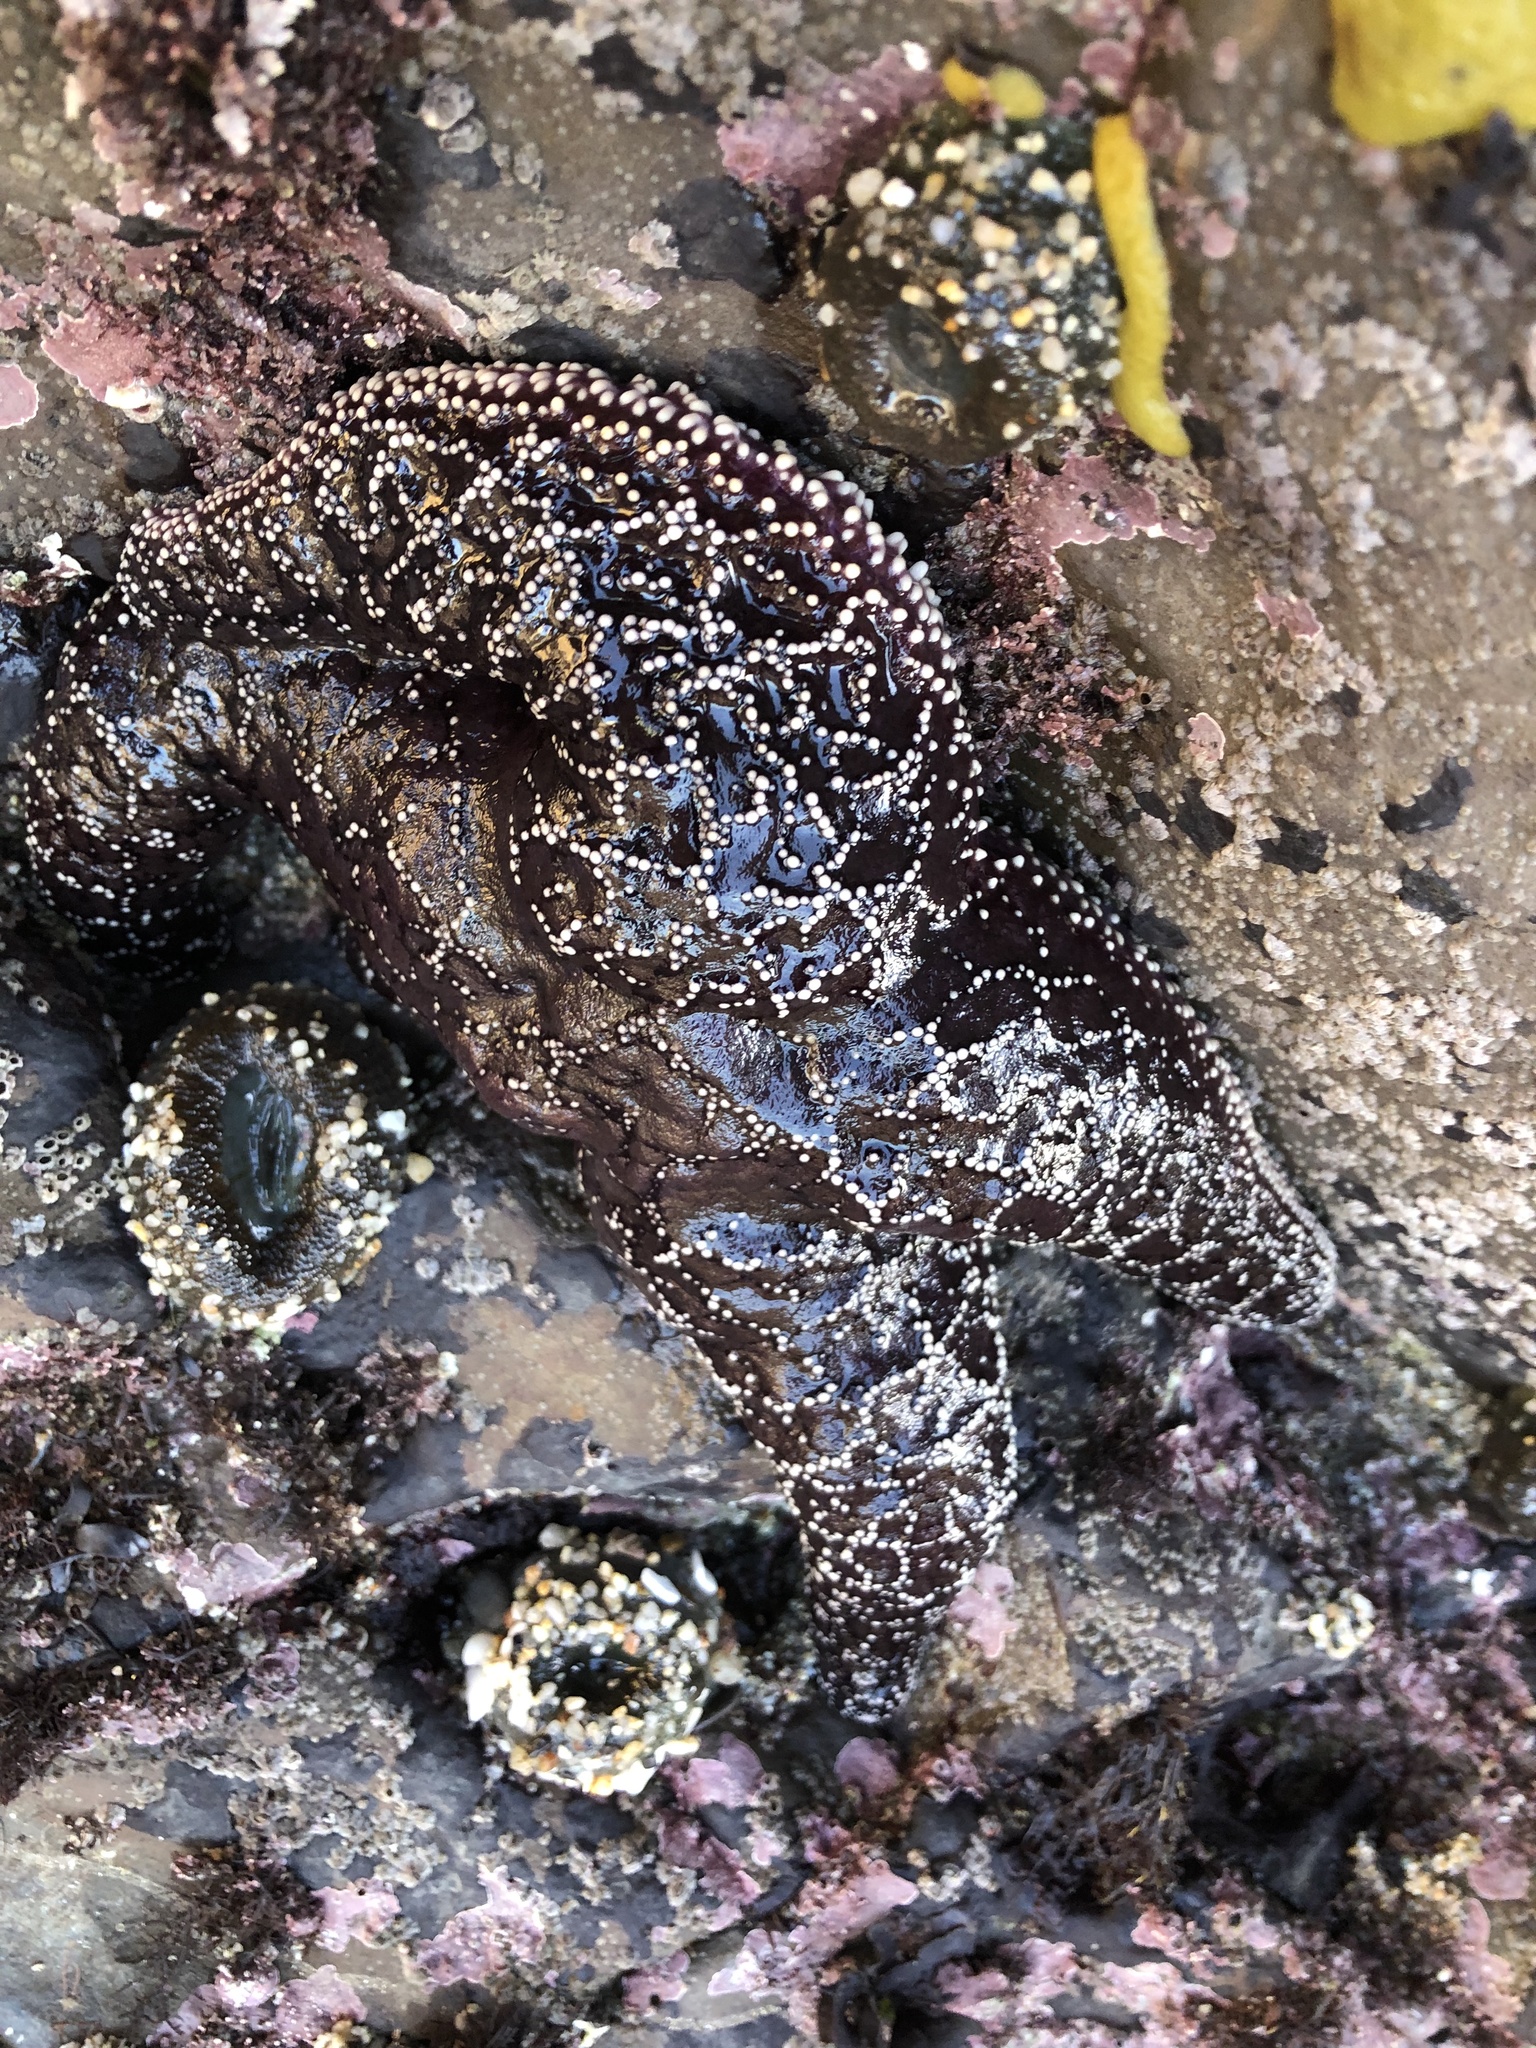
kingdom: Animalia
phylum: Echinodermata
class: Asteroidea
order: Forcipulatida
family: Asteriidae
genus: Pisaster
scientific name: Pisaster ochraceus
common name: Ochre stars
